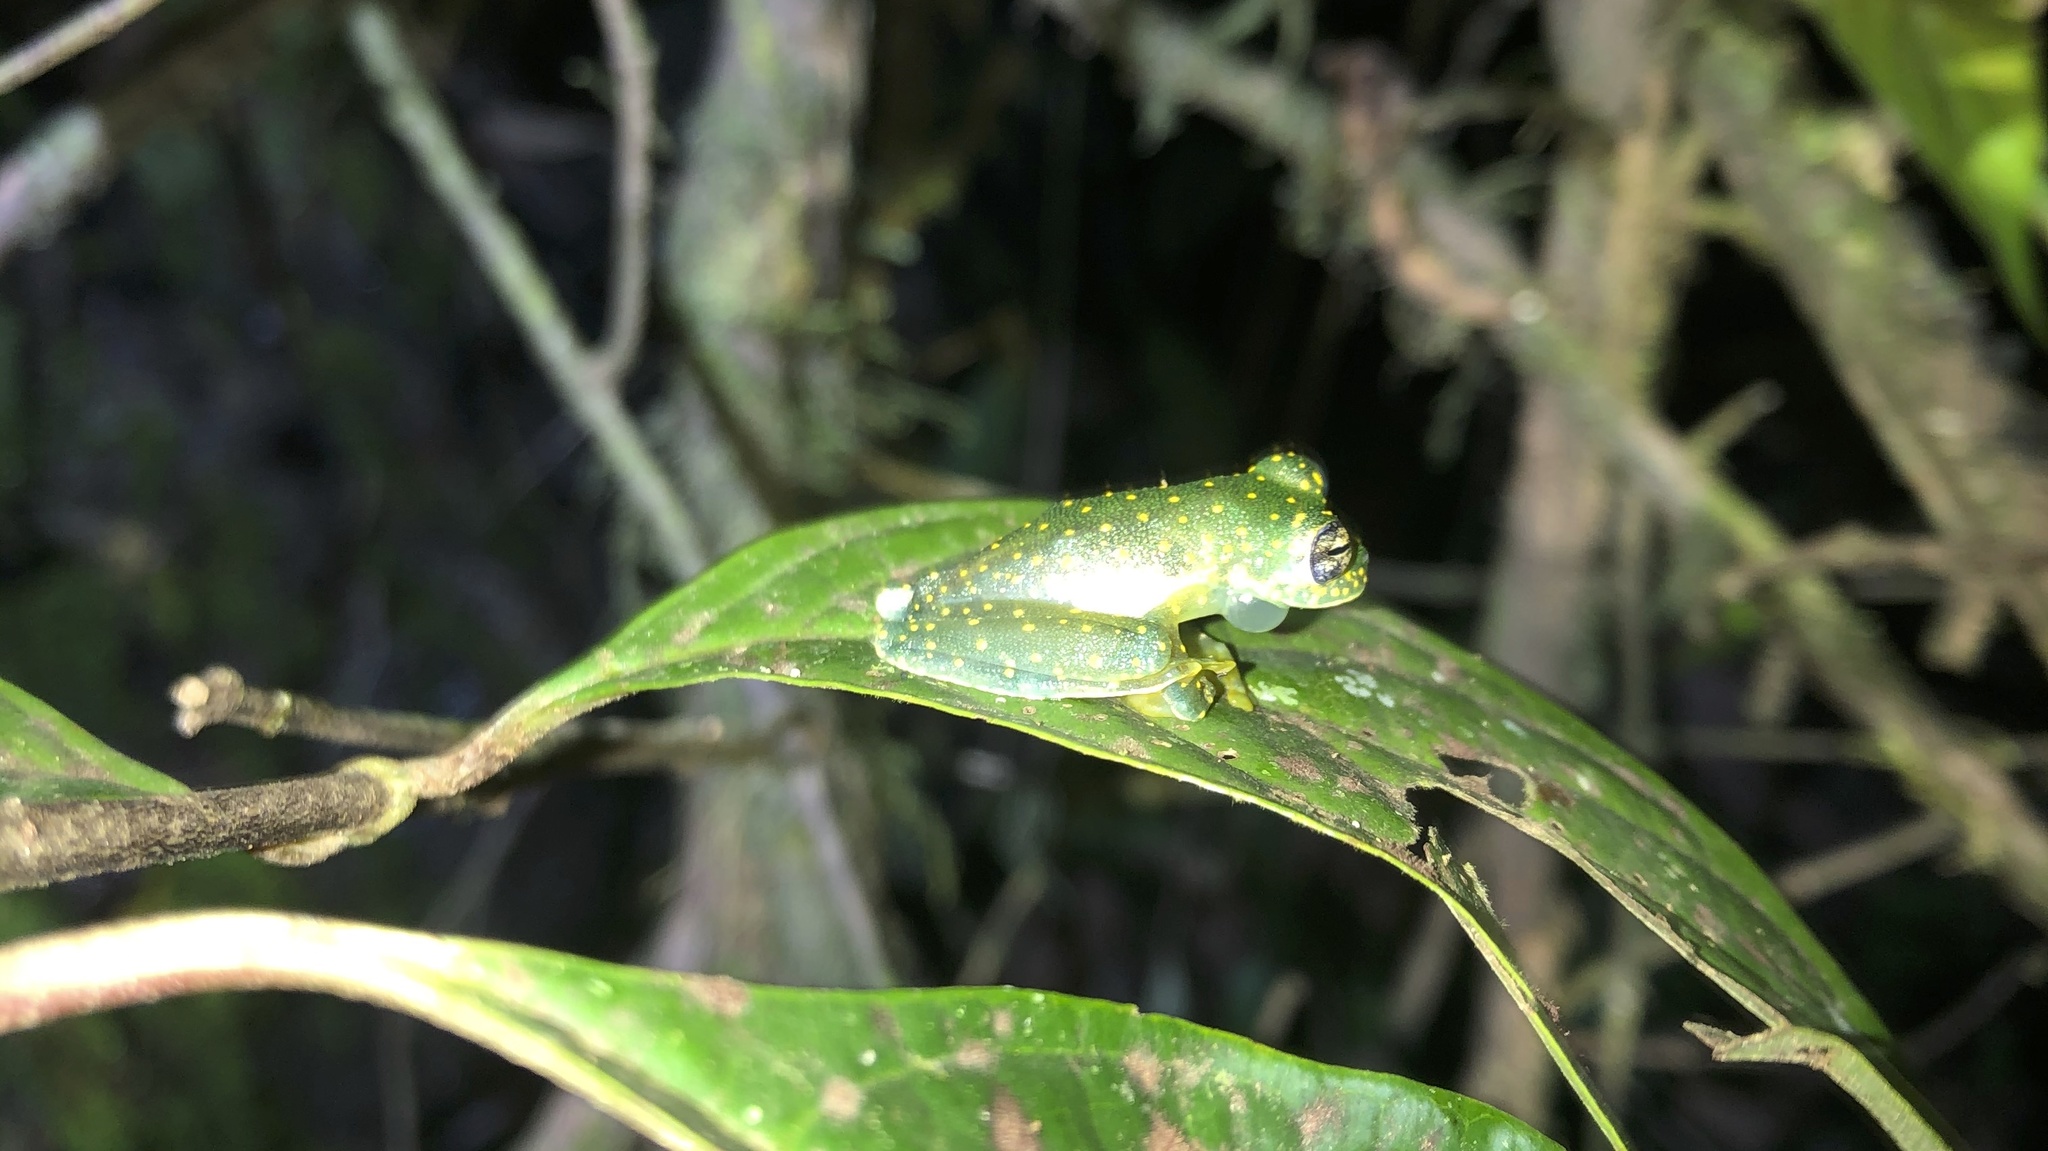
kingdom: Animalia
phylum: Chordata
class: Amphibia
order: Anura
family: Centrolenidae
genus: Sachatamia
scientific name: Sachatamia albomaculata
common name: Rana de cristal de cascada
